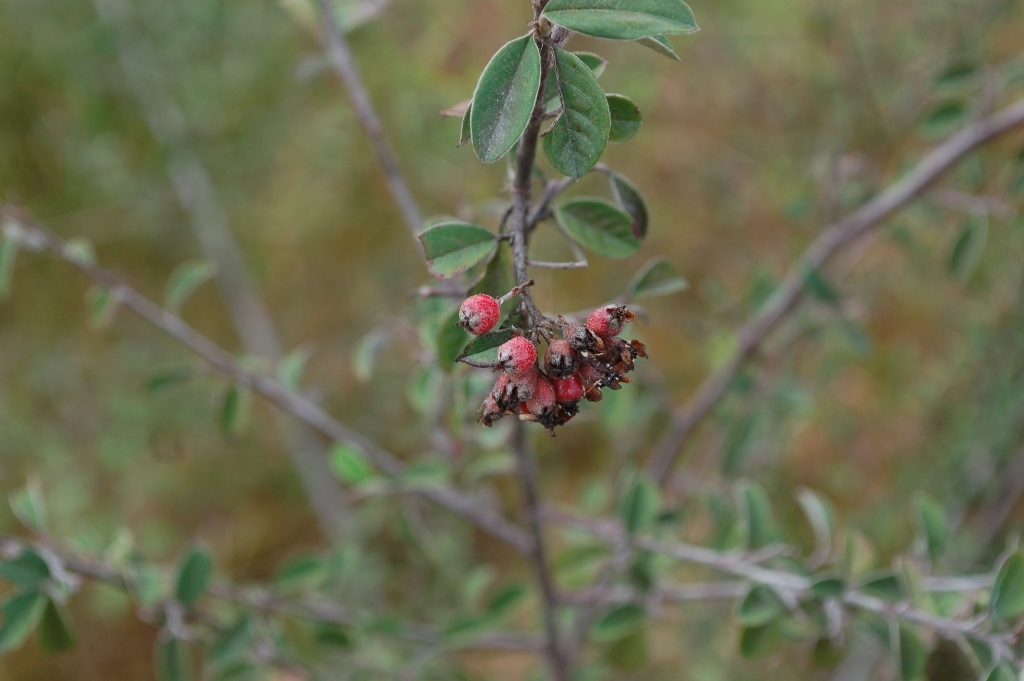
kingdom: Plantae
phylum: Tracheophyta
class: Magnoliopsida
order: Rosales
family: Rosaceae
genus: Malacomeles
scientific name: Malacomeles nervosa
